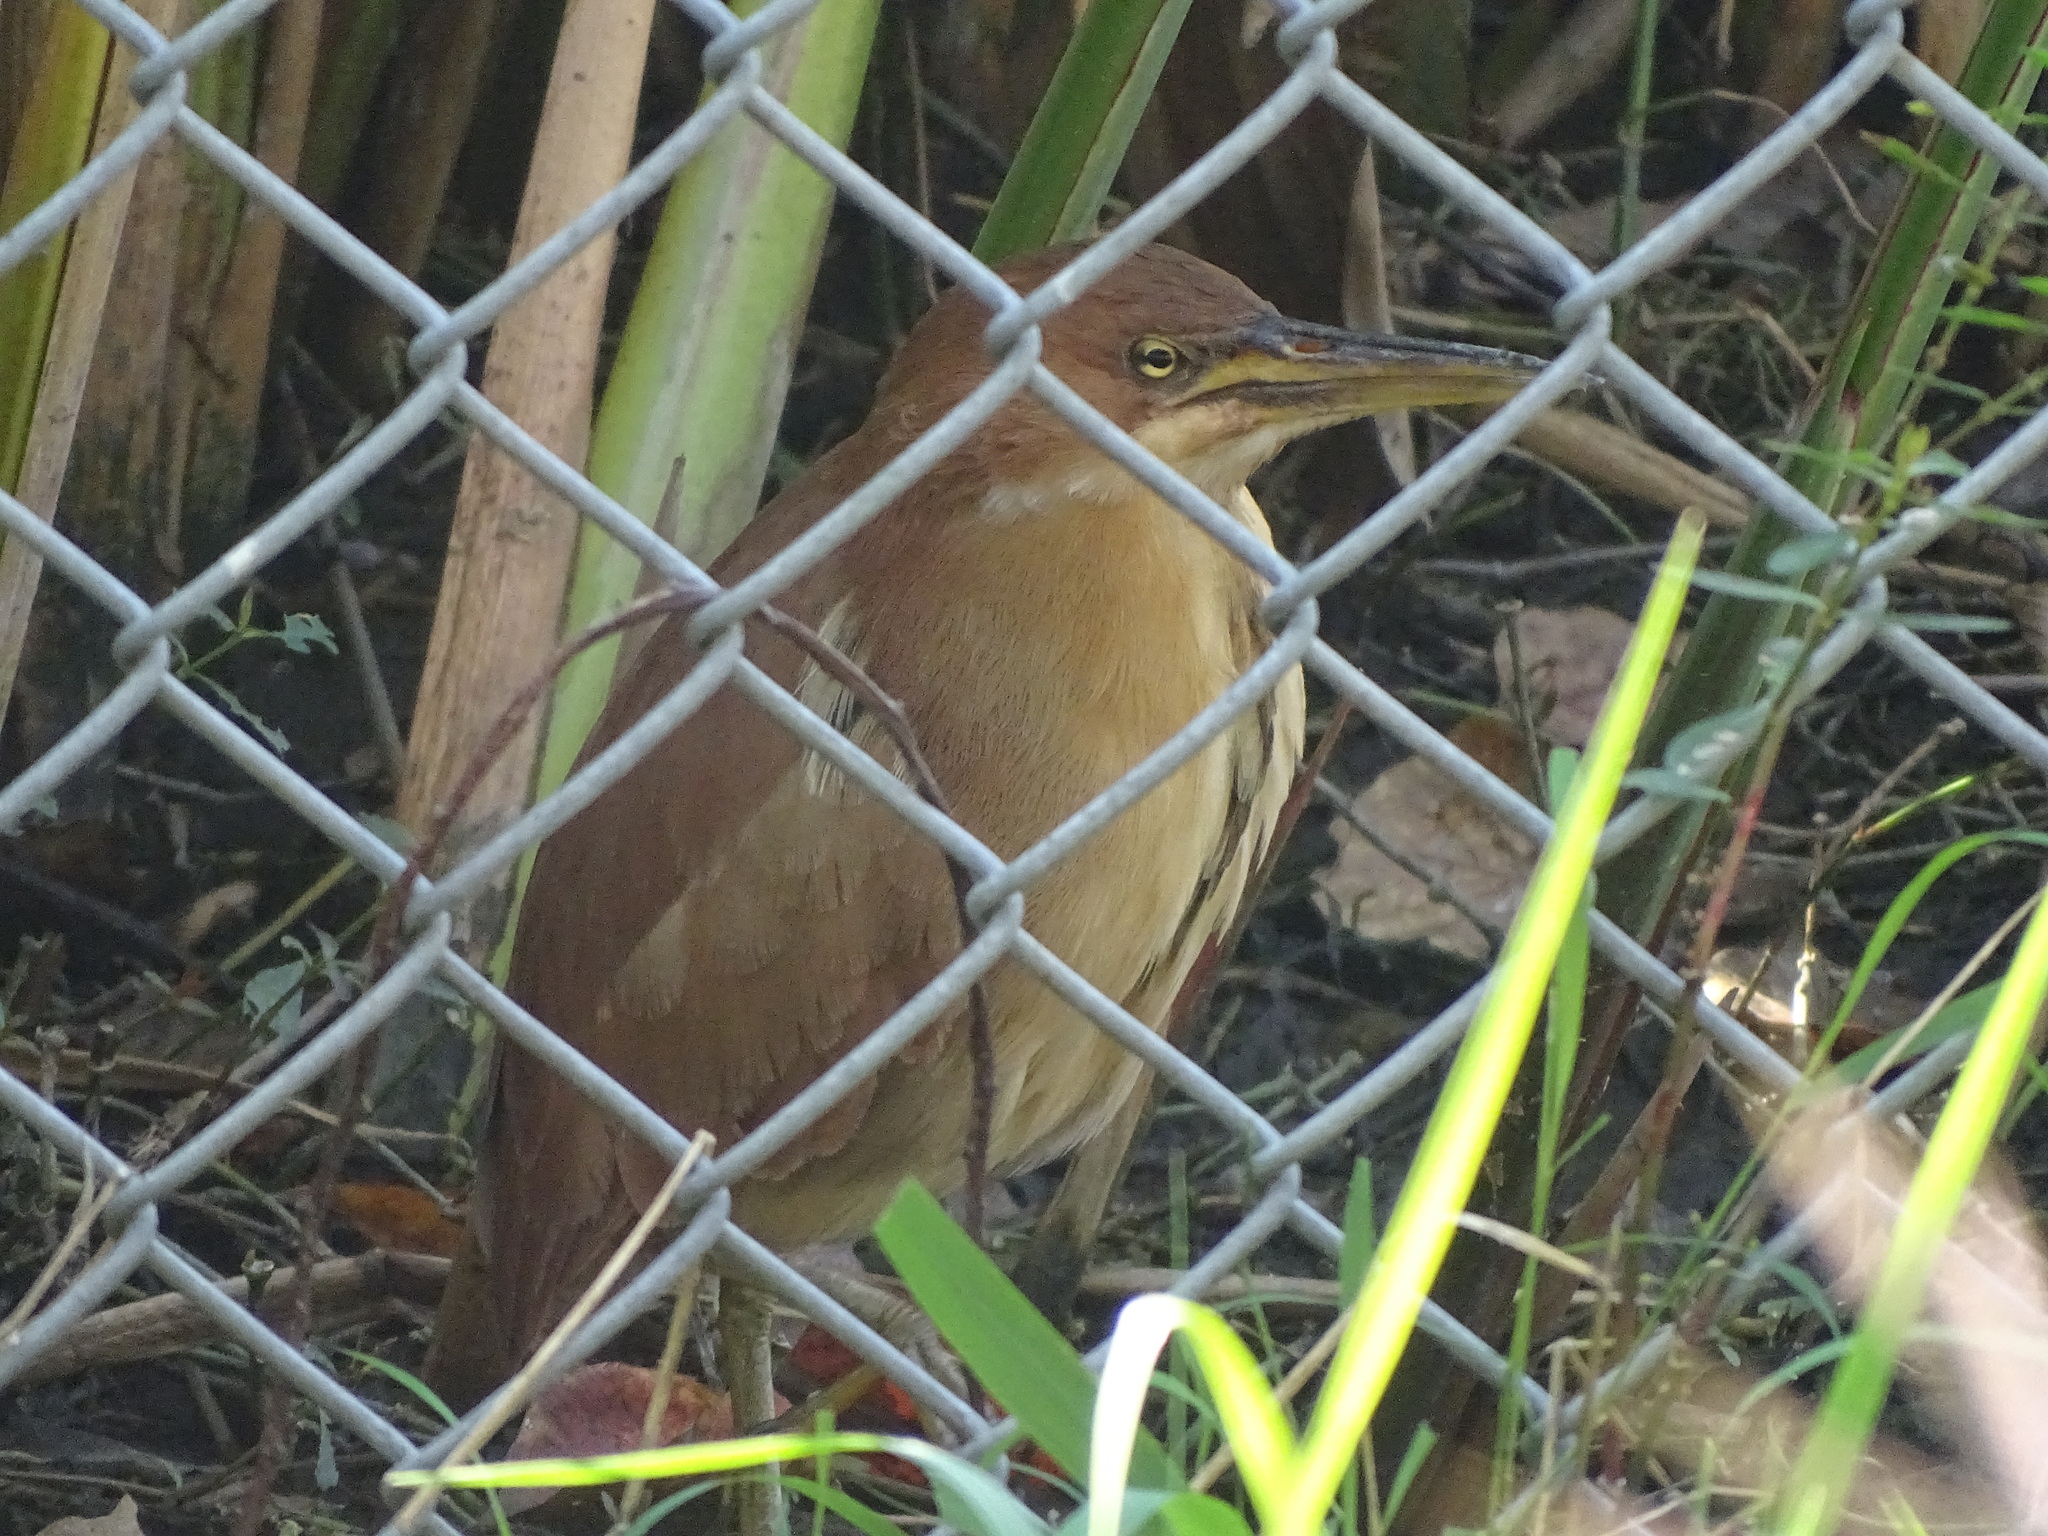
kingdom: Animalia
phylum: Chordata
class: Aves
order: Pelecaniformes
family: Ardeidae
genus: Ixobrychus
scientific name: Ixobrychus cinnamomeus
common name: Cinnamon bittern
